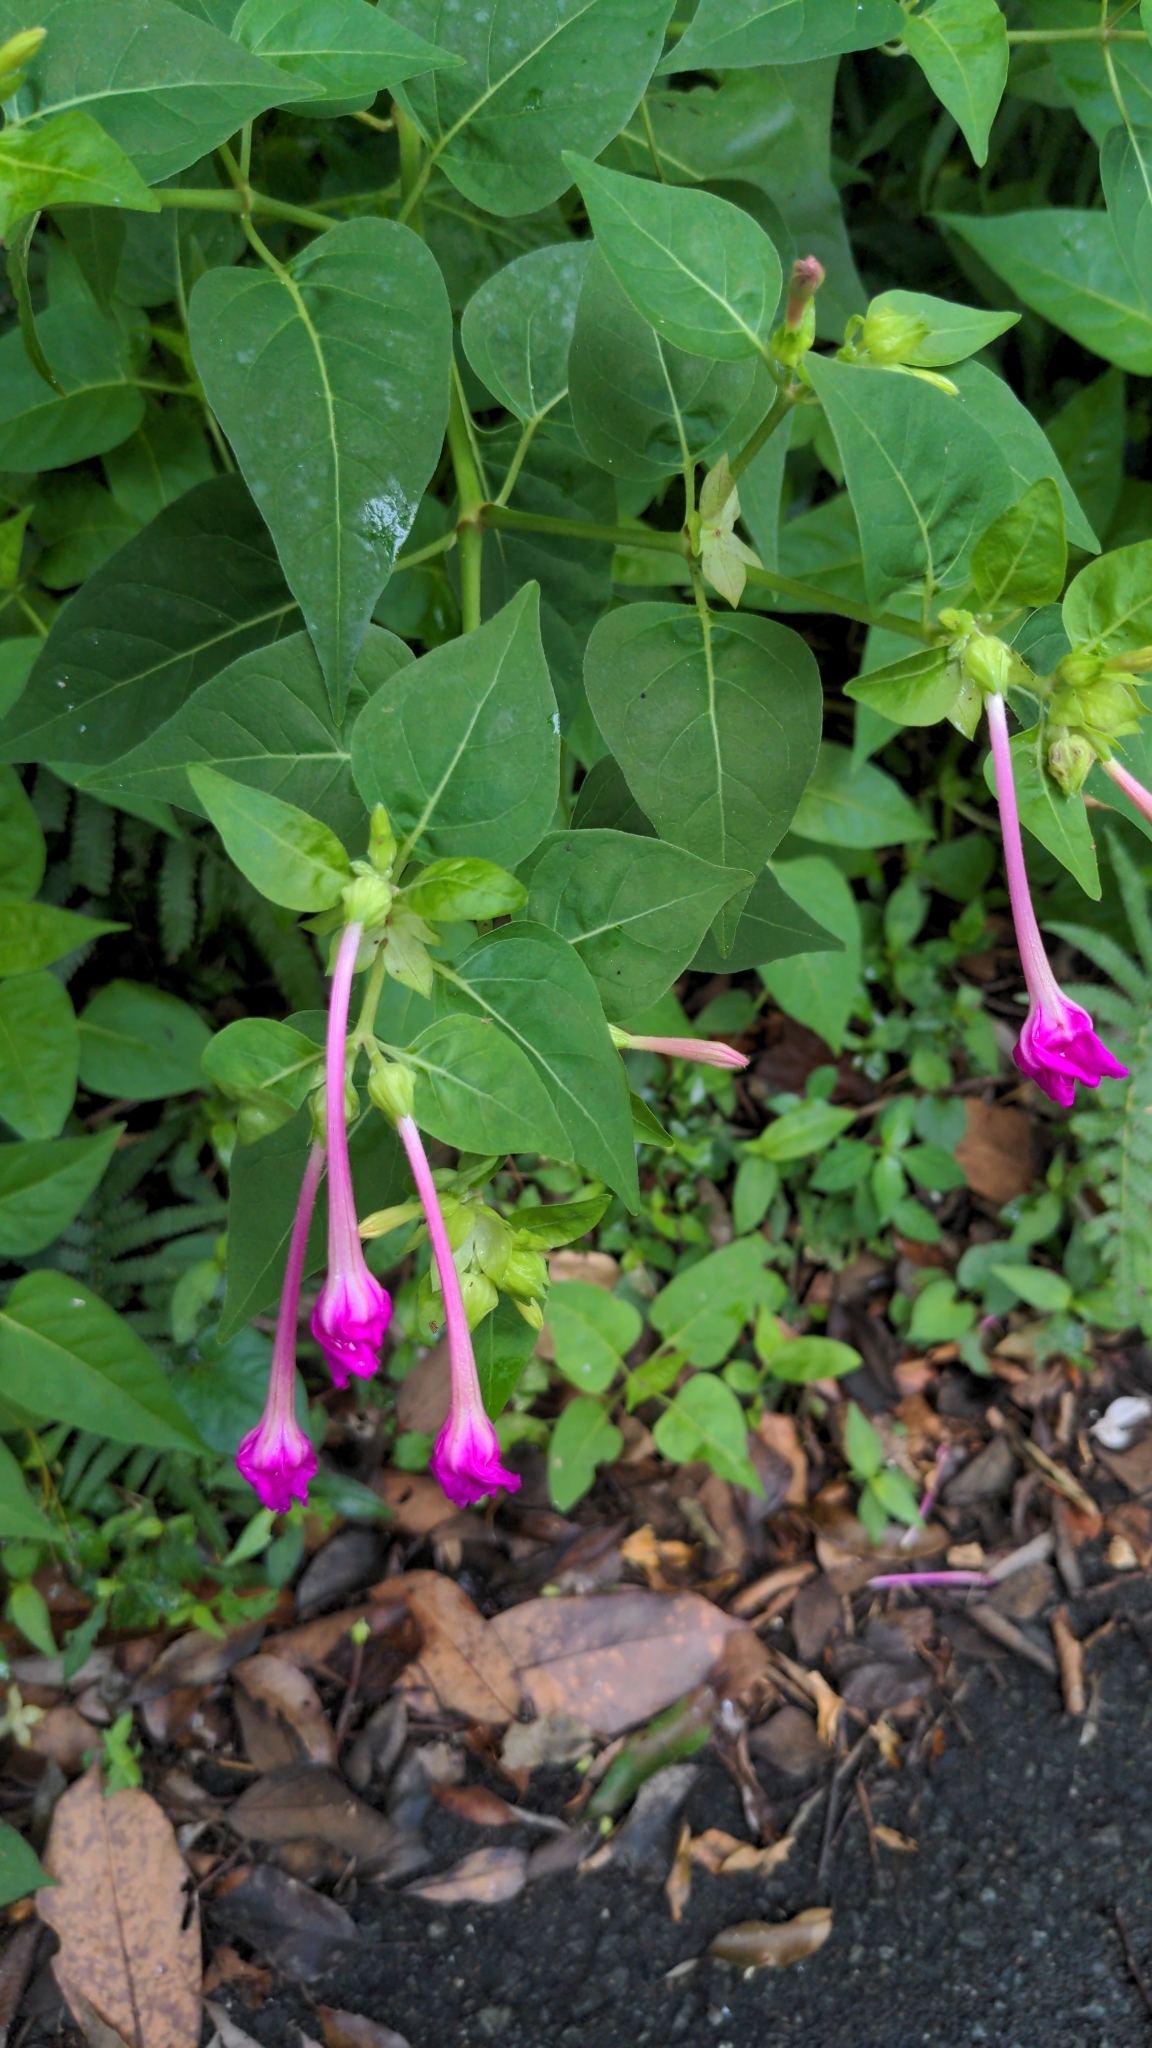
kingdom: Plantae
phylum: Tracheophyta
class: Magnoliopsida
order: Caryophyllales
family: Nyctaginaceae
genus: Mirabilis
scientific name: Mirabilis jalapa
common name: Marvel-of-peru
